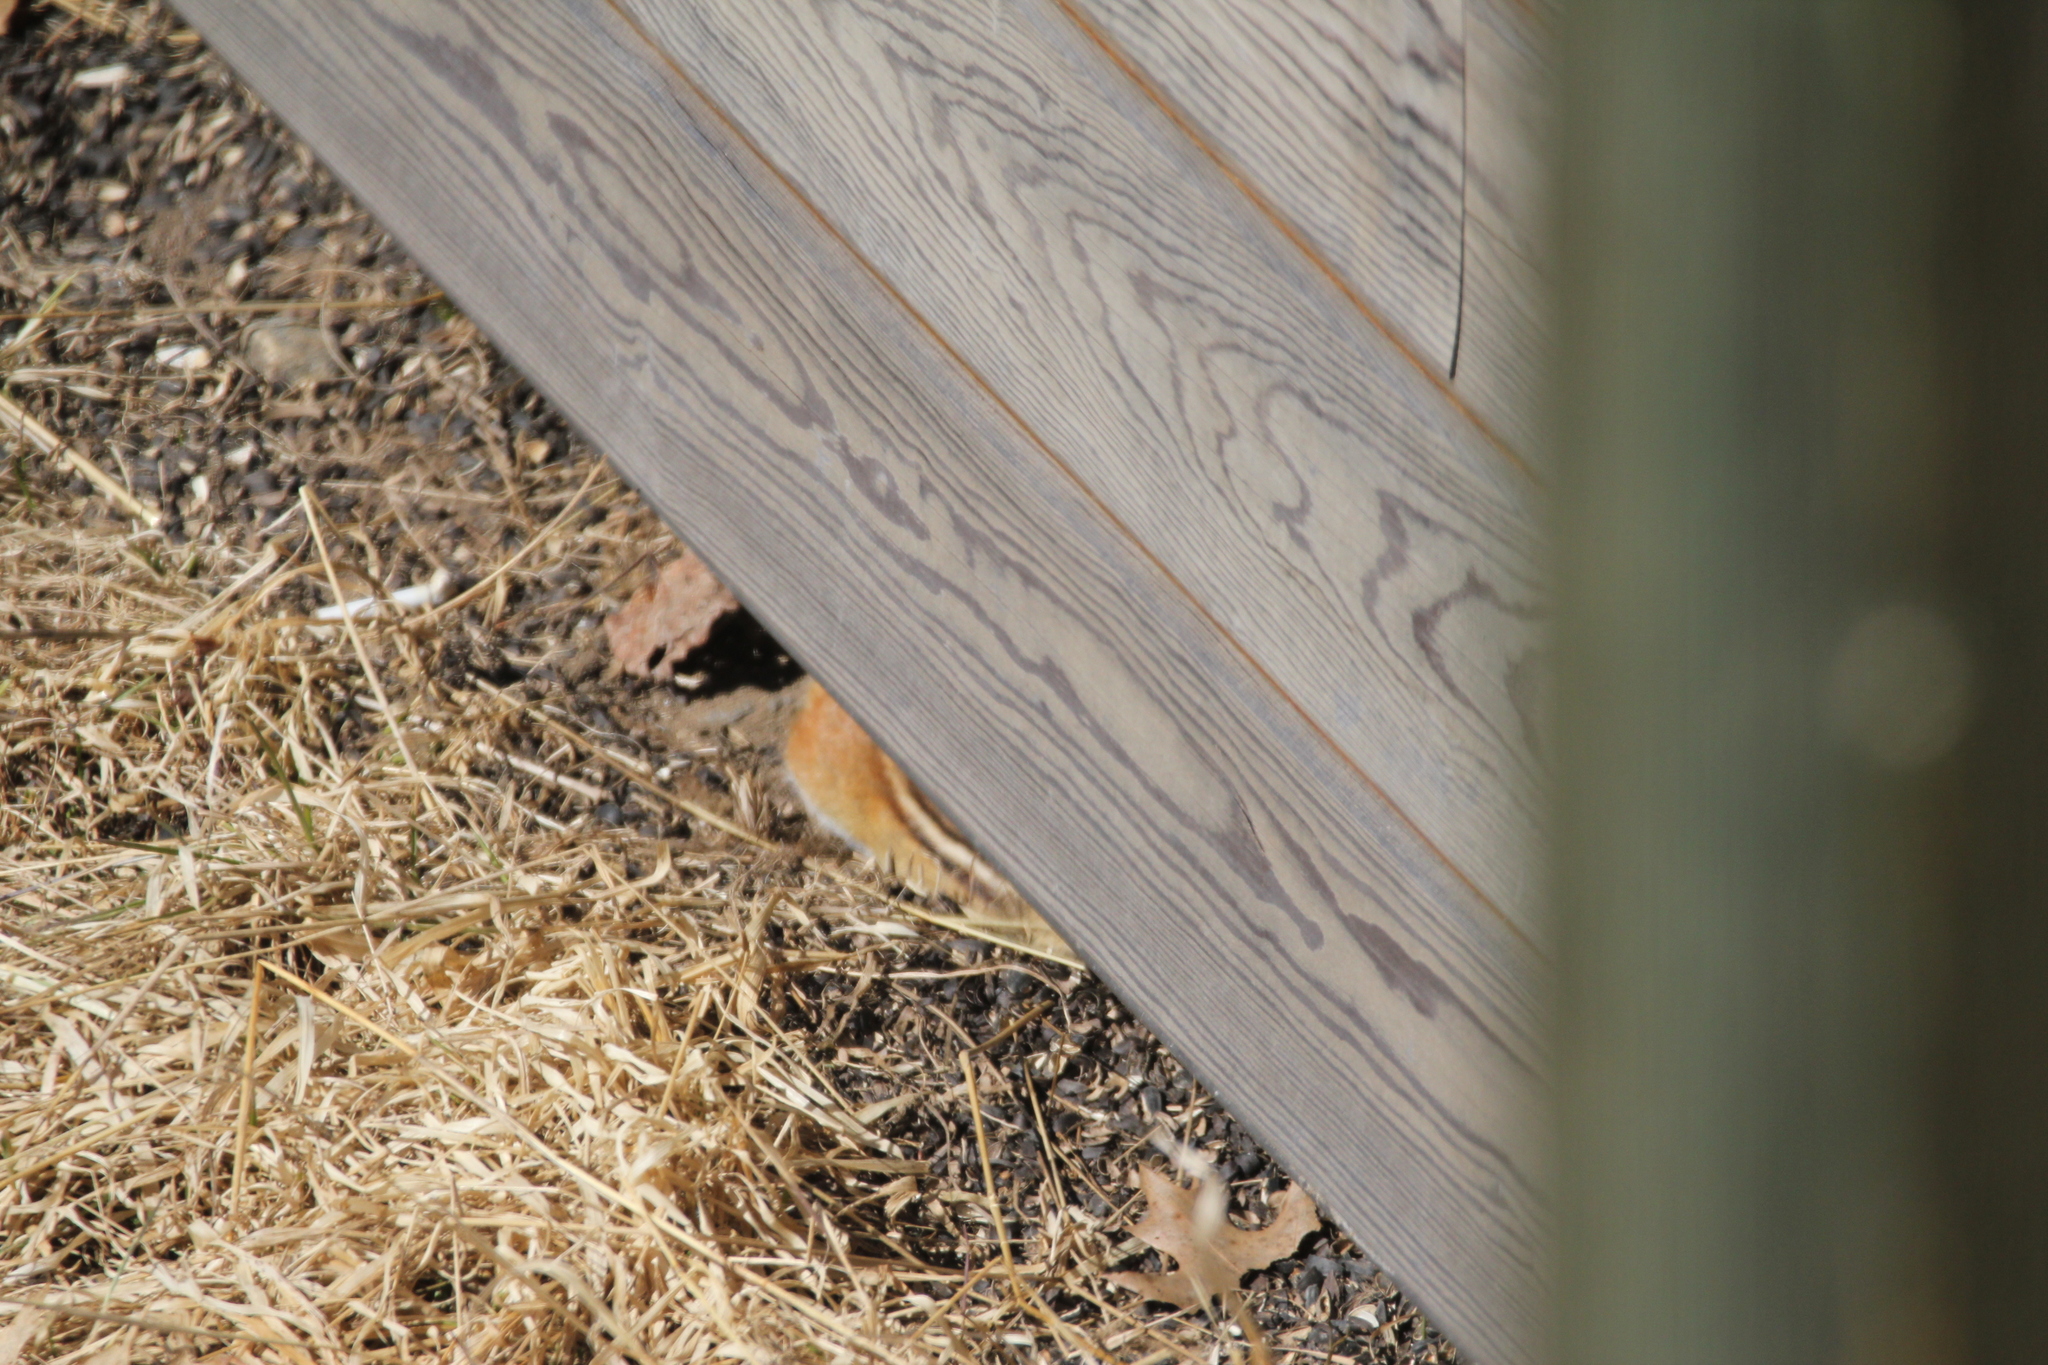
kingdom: Animalia
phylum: Chordata
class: Mammalia
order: Rodentia
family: Sciuridae
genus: Tamias
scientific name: Tamias striatus
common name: Eastern chipmunk
